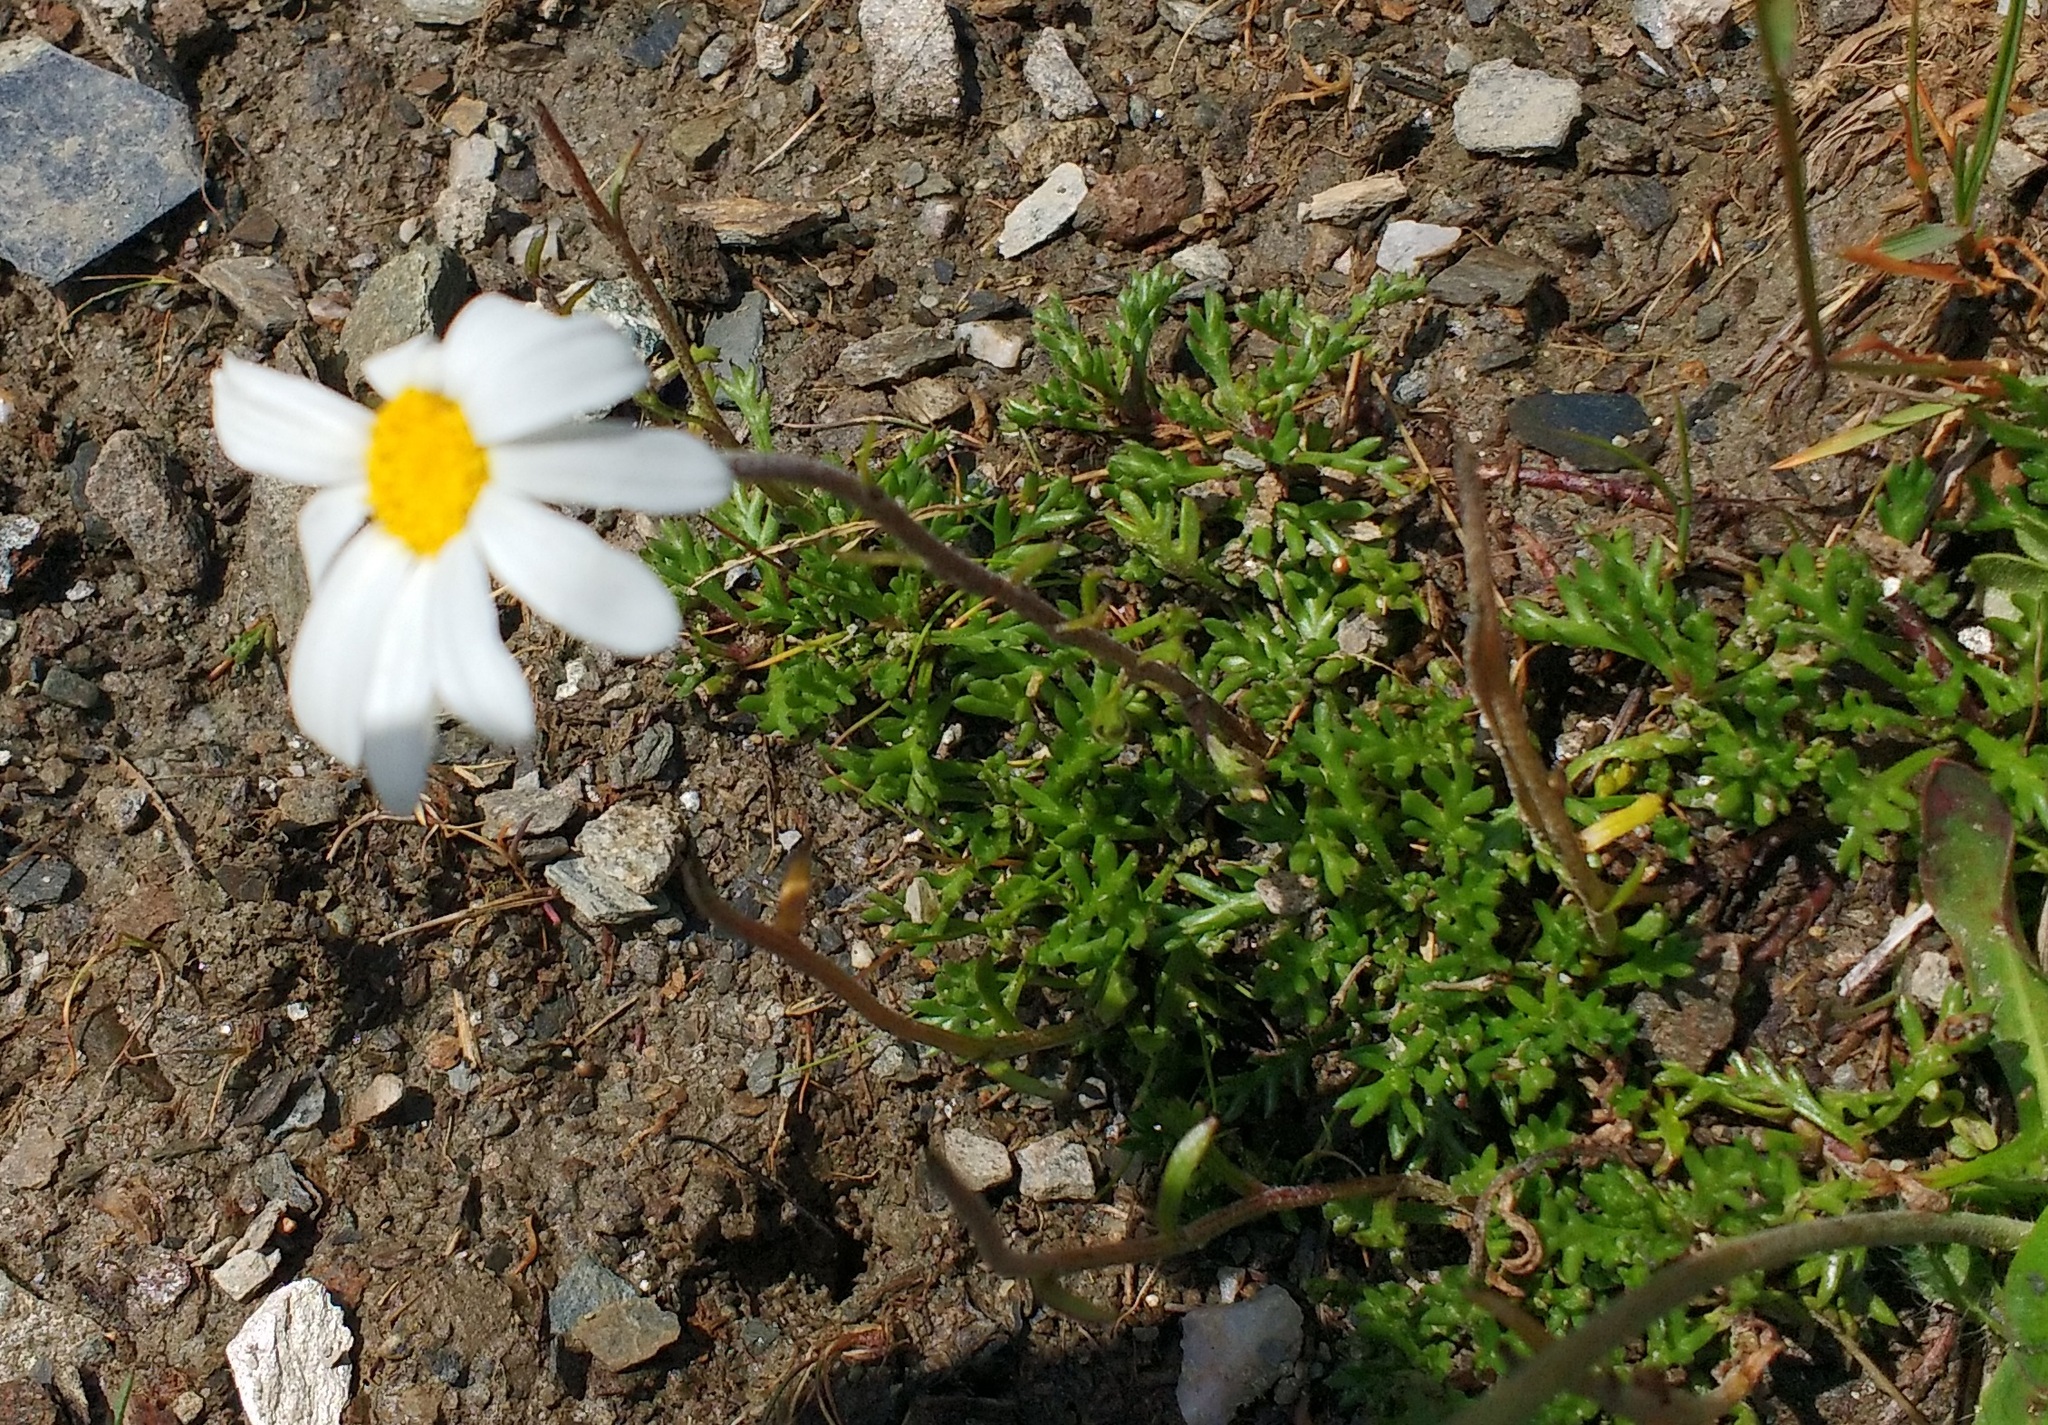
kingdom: Plantae
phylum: Tracheophyta
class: Magnoliopsida
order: Asterales
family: Asteraceae
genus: Leucanthemopsis
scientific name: Leucanthemopsis alpina
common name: Alpine moon daisy
